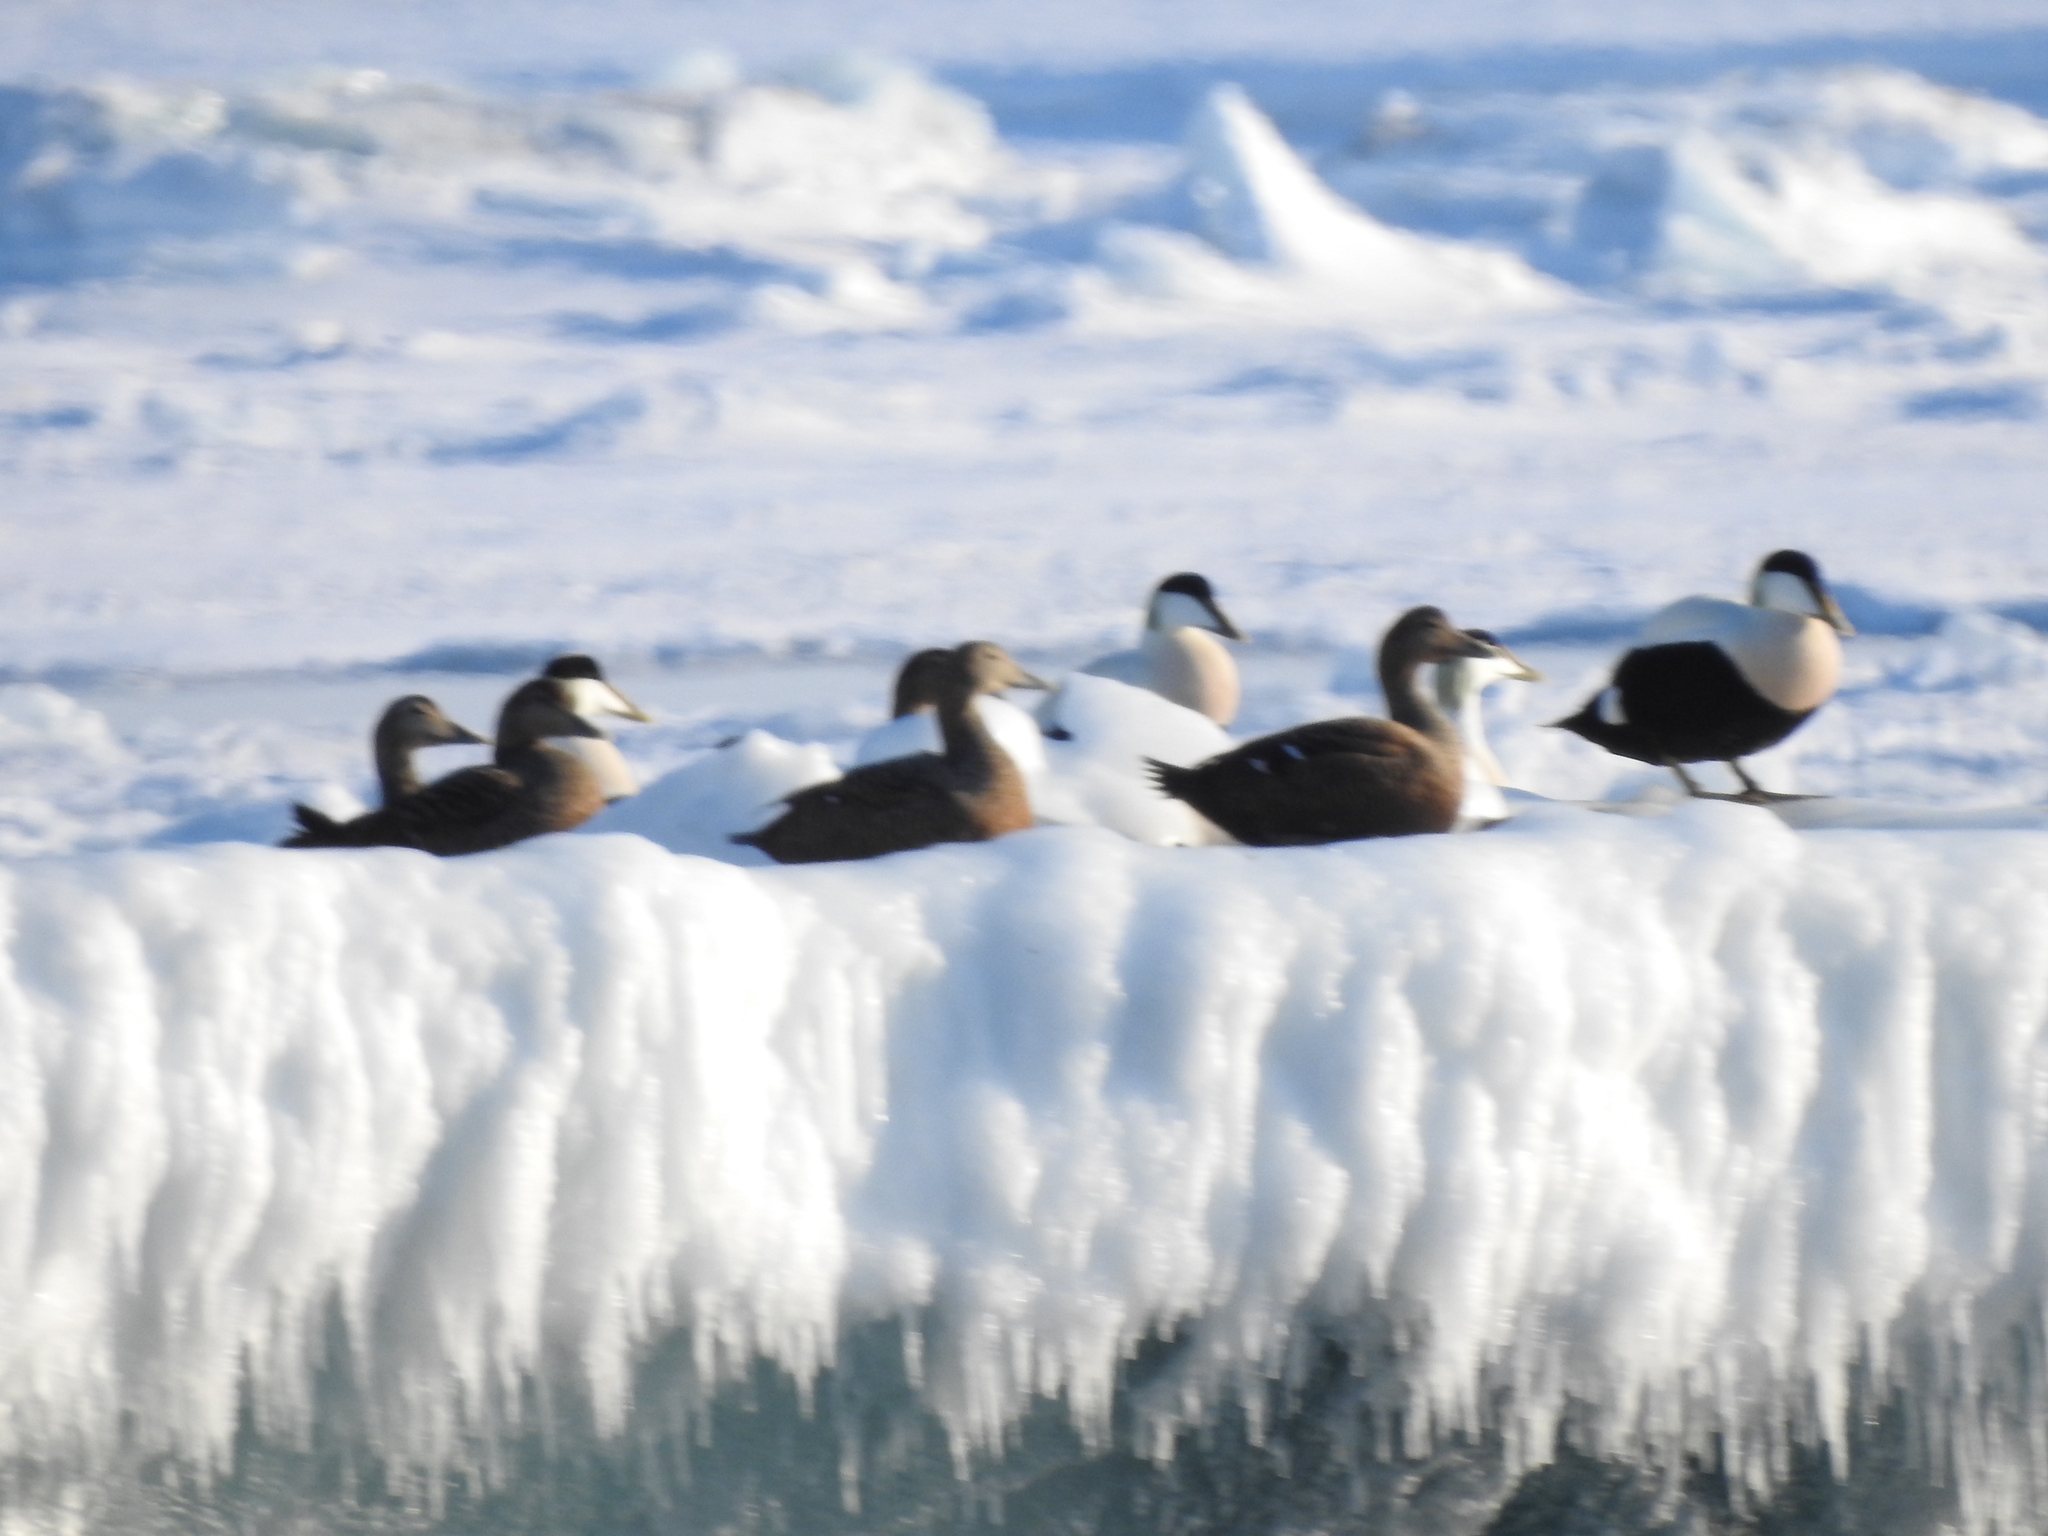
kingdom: Animalia
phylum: Chordata
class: Aves
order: Anseriformes
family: Anatidae
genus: Somateria
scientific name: Somateria mollissima
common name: Common eider
